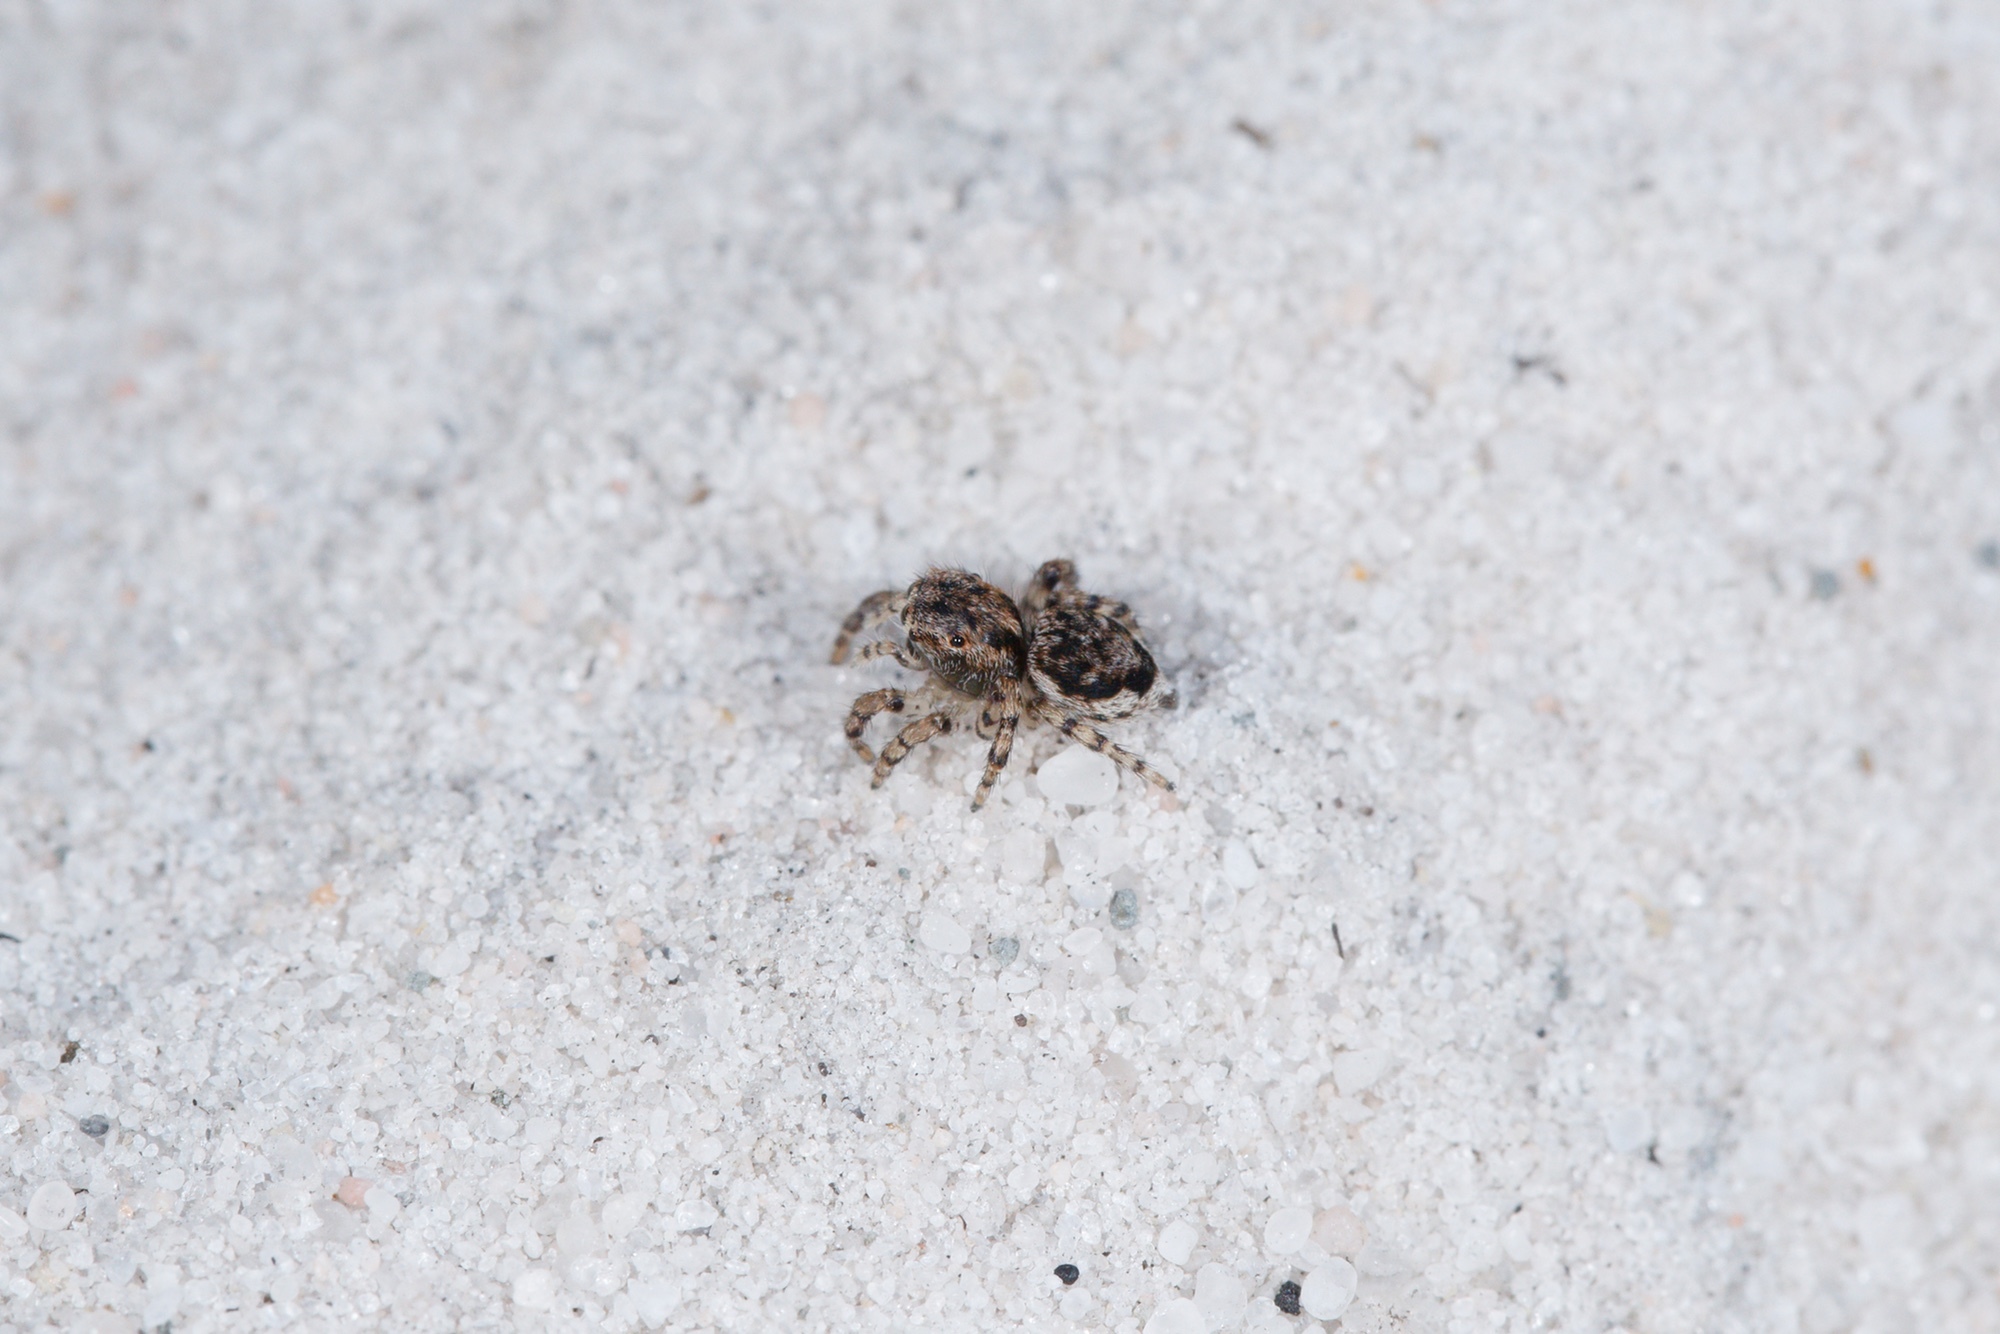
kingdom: Animalia
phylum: Arthropoda
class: Arachnida
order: Araneae
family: Salticidae
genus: Maratus
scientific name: Maratus plumosus
